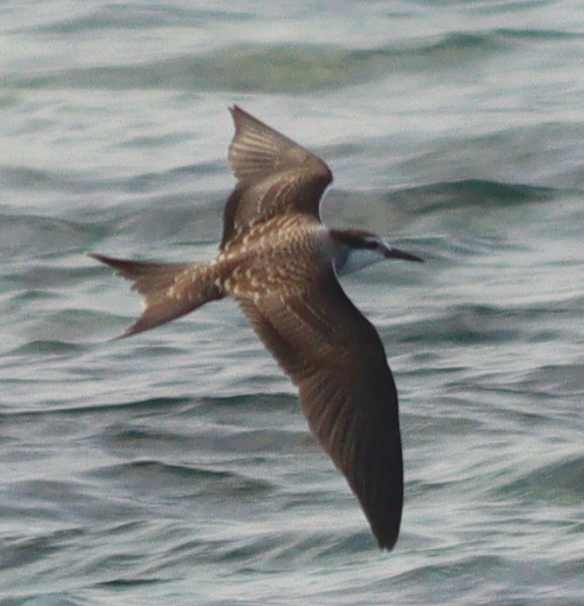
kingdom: Animalia
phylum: Chordata
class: Aves
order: Charadriiformes
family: Laridae
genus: Onychoprion
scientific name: Onychoprion anaethetus
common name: Bridled tern
